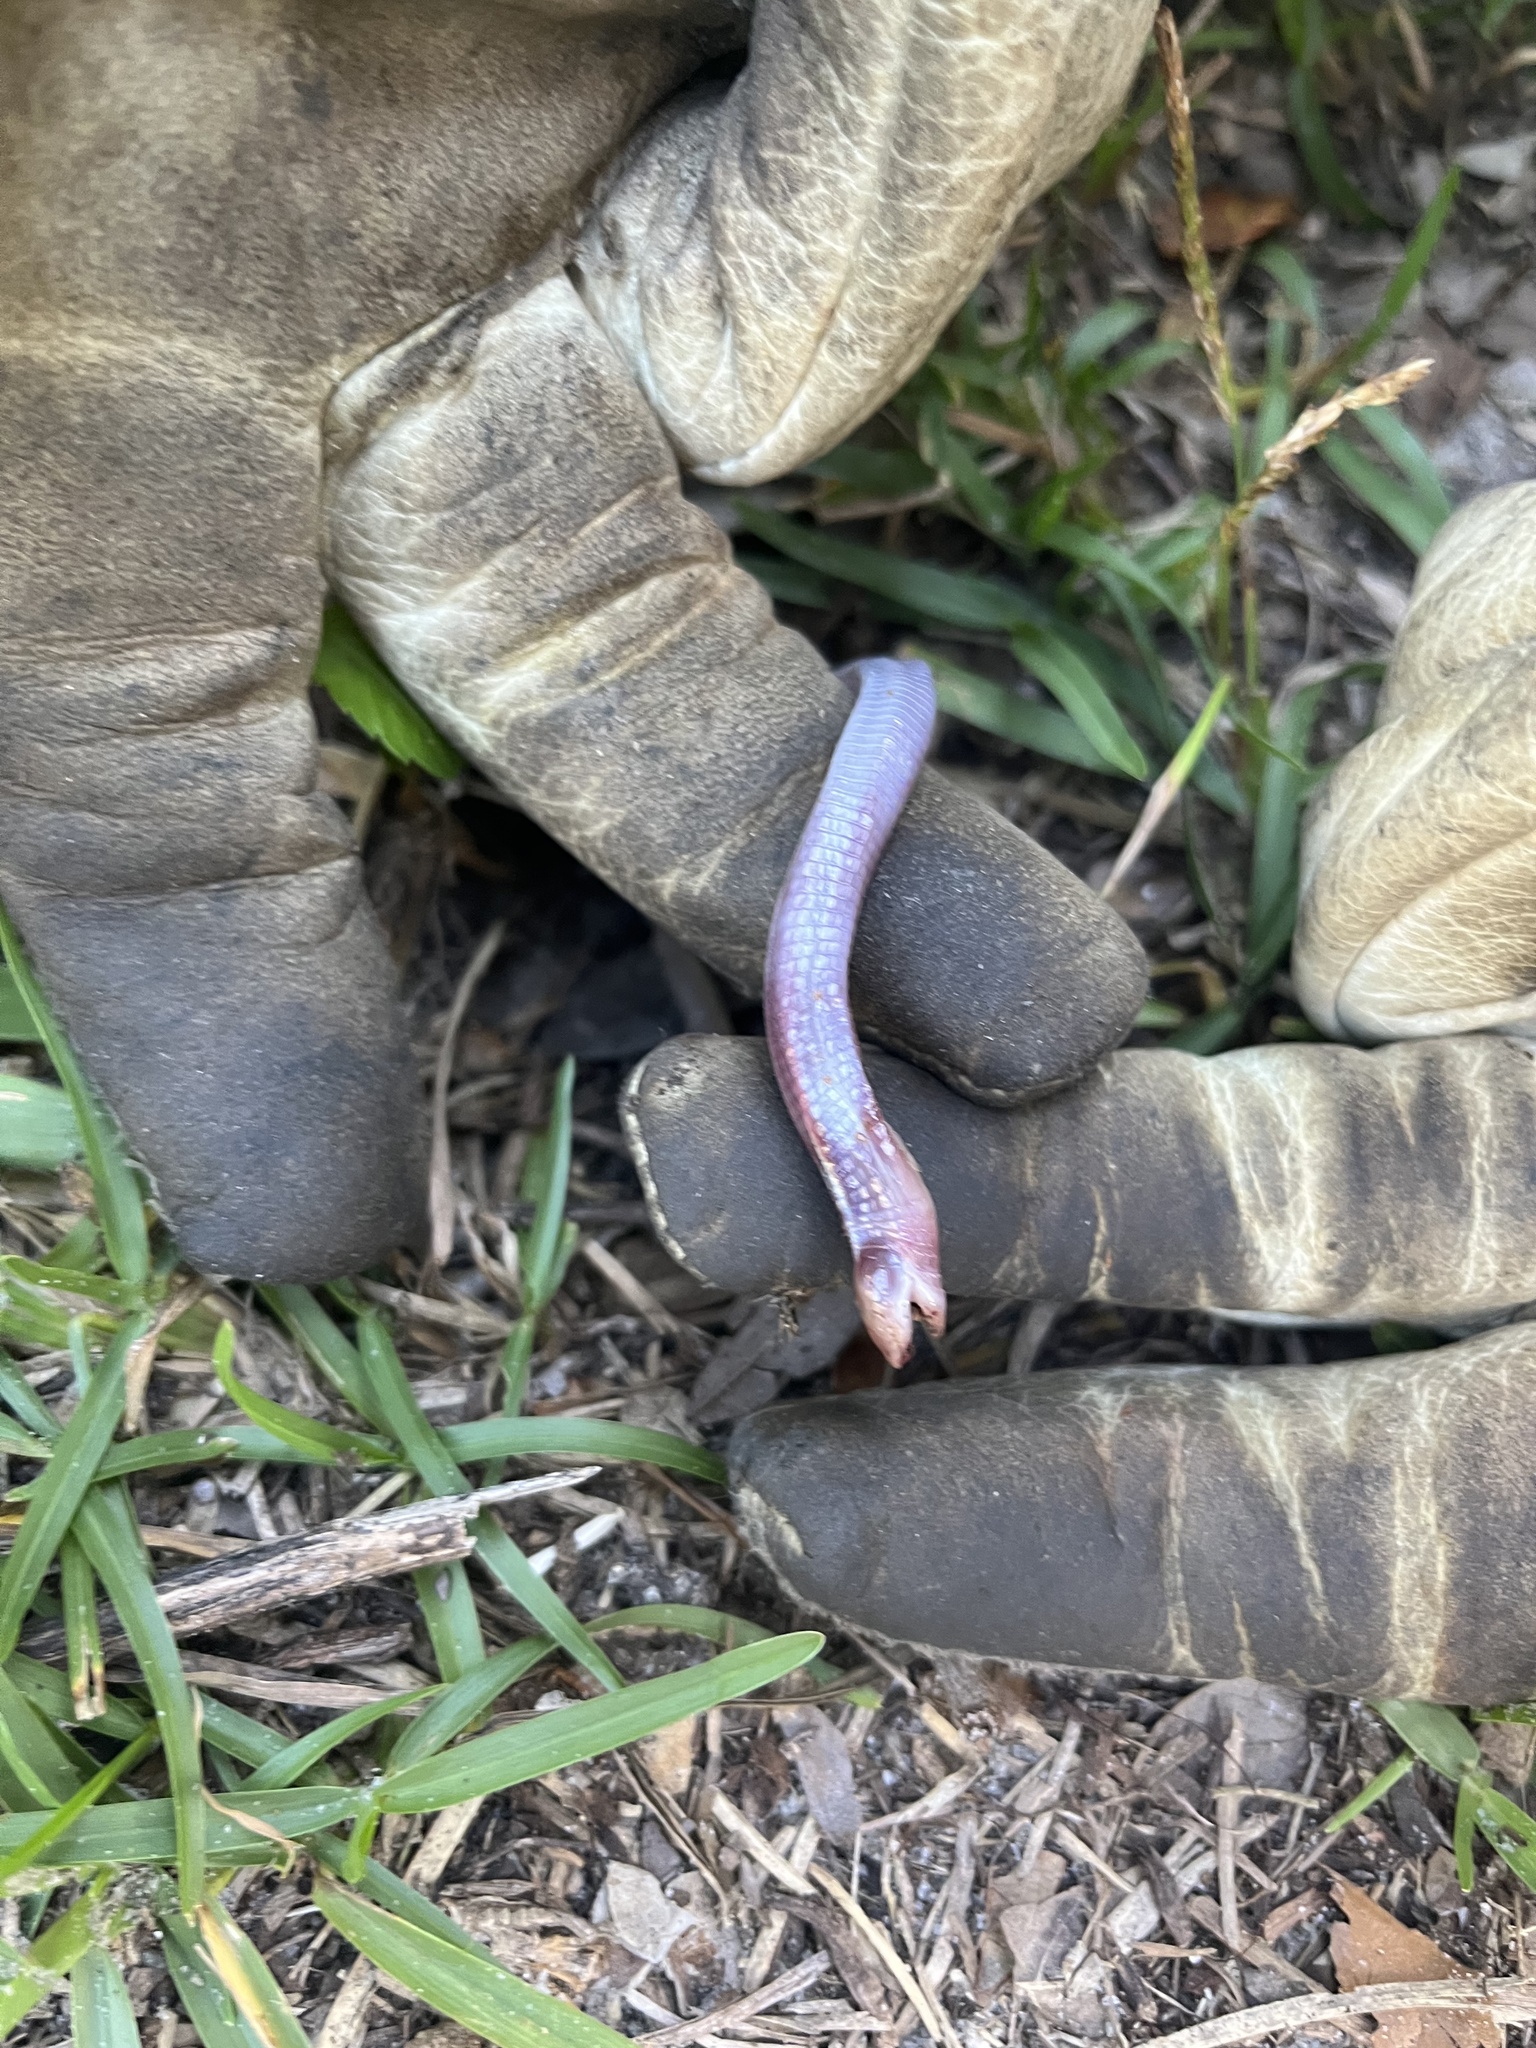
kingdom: Animalia
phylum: Chordata
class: Squamata
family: Rhineuridae
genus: Rhineura
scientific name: Rhineura floridana
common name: Florida worm lizard
